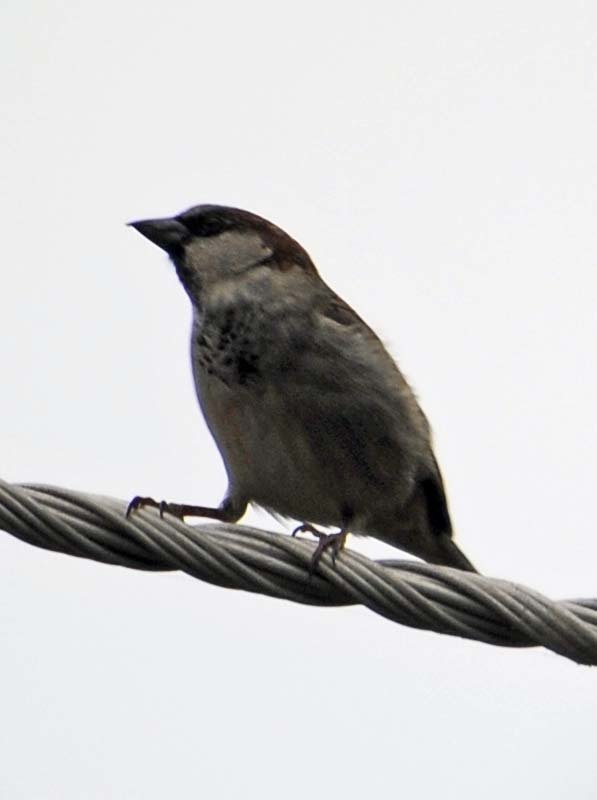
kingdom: Animalia
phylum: Chordata
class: Aves
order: Passeriformes
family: Passeridae
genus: Passer
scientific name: Passer domesticus
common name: House sparrow
